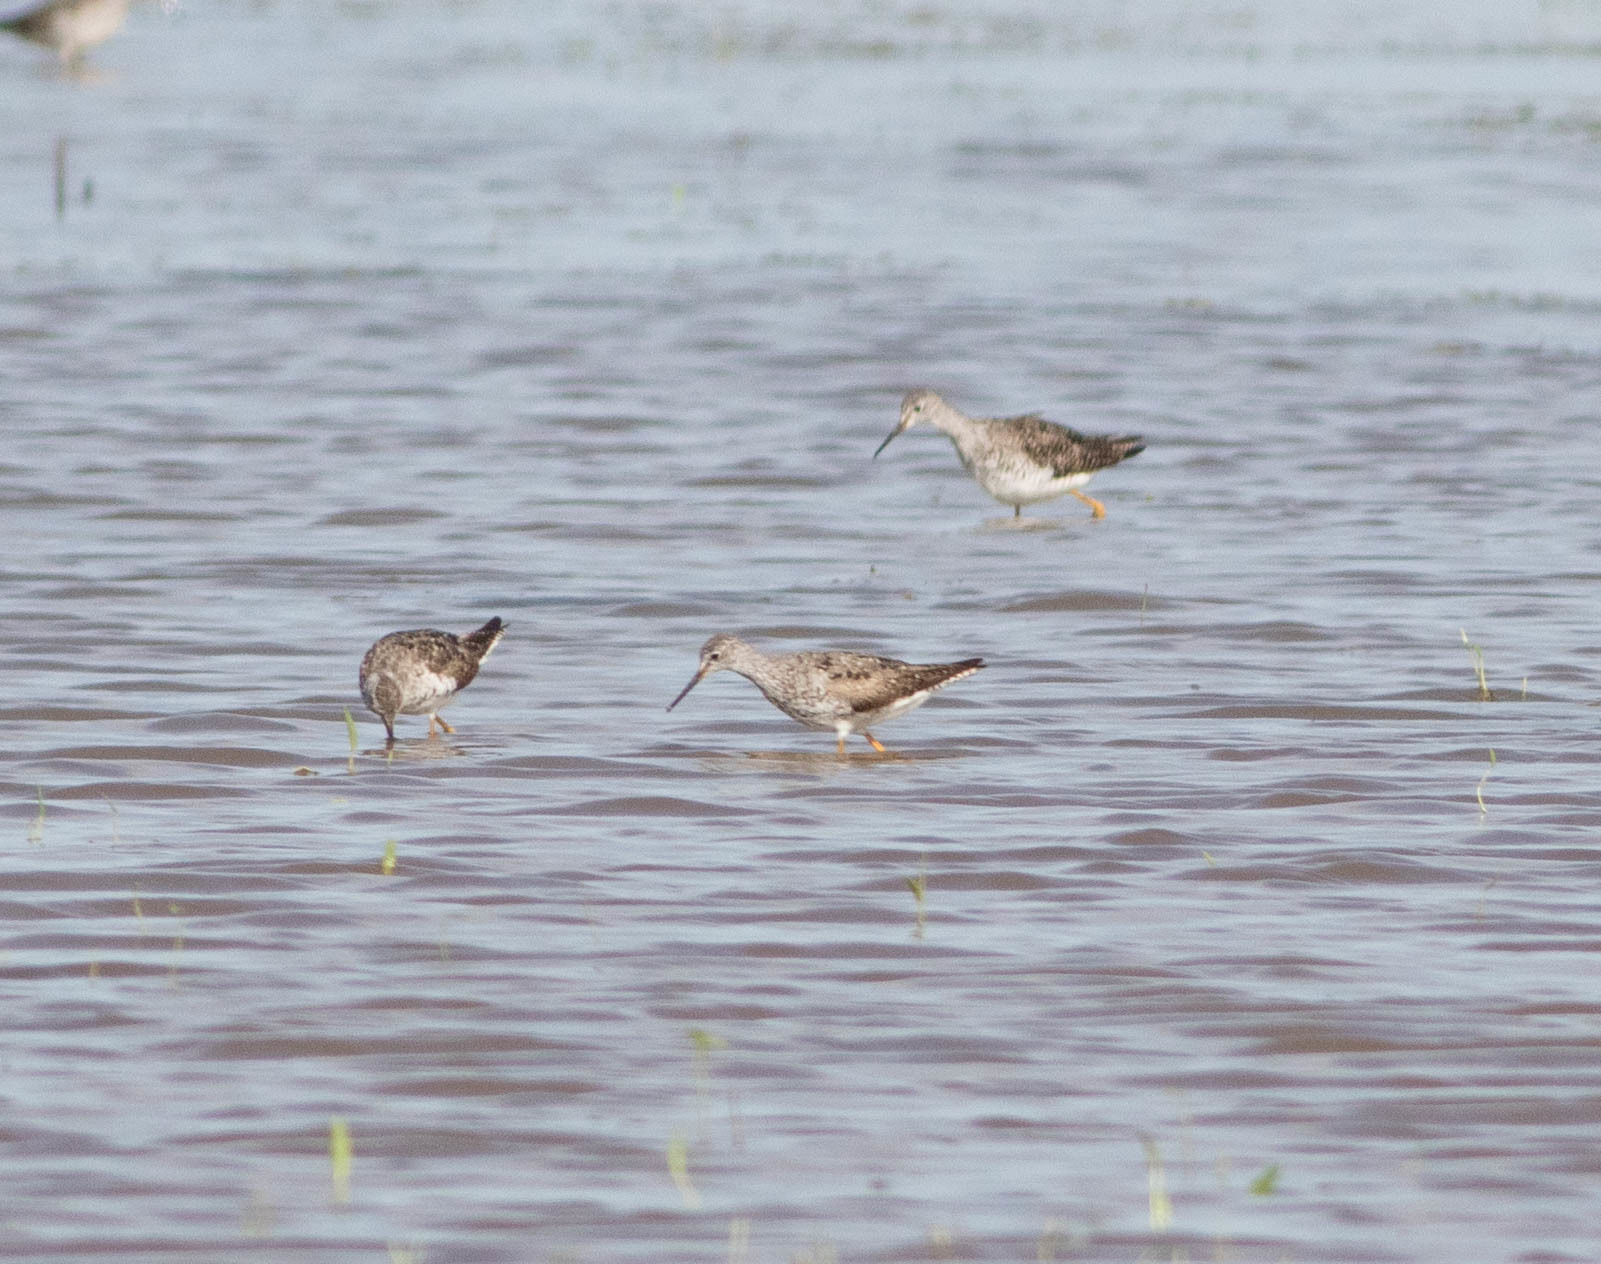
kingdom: Animalia
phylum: Chordata
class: Aves
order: Charadriiformes
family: Scolopacidae
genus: Tringa
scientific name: Tringa flavipes
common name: Lesser yellowlegs
